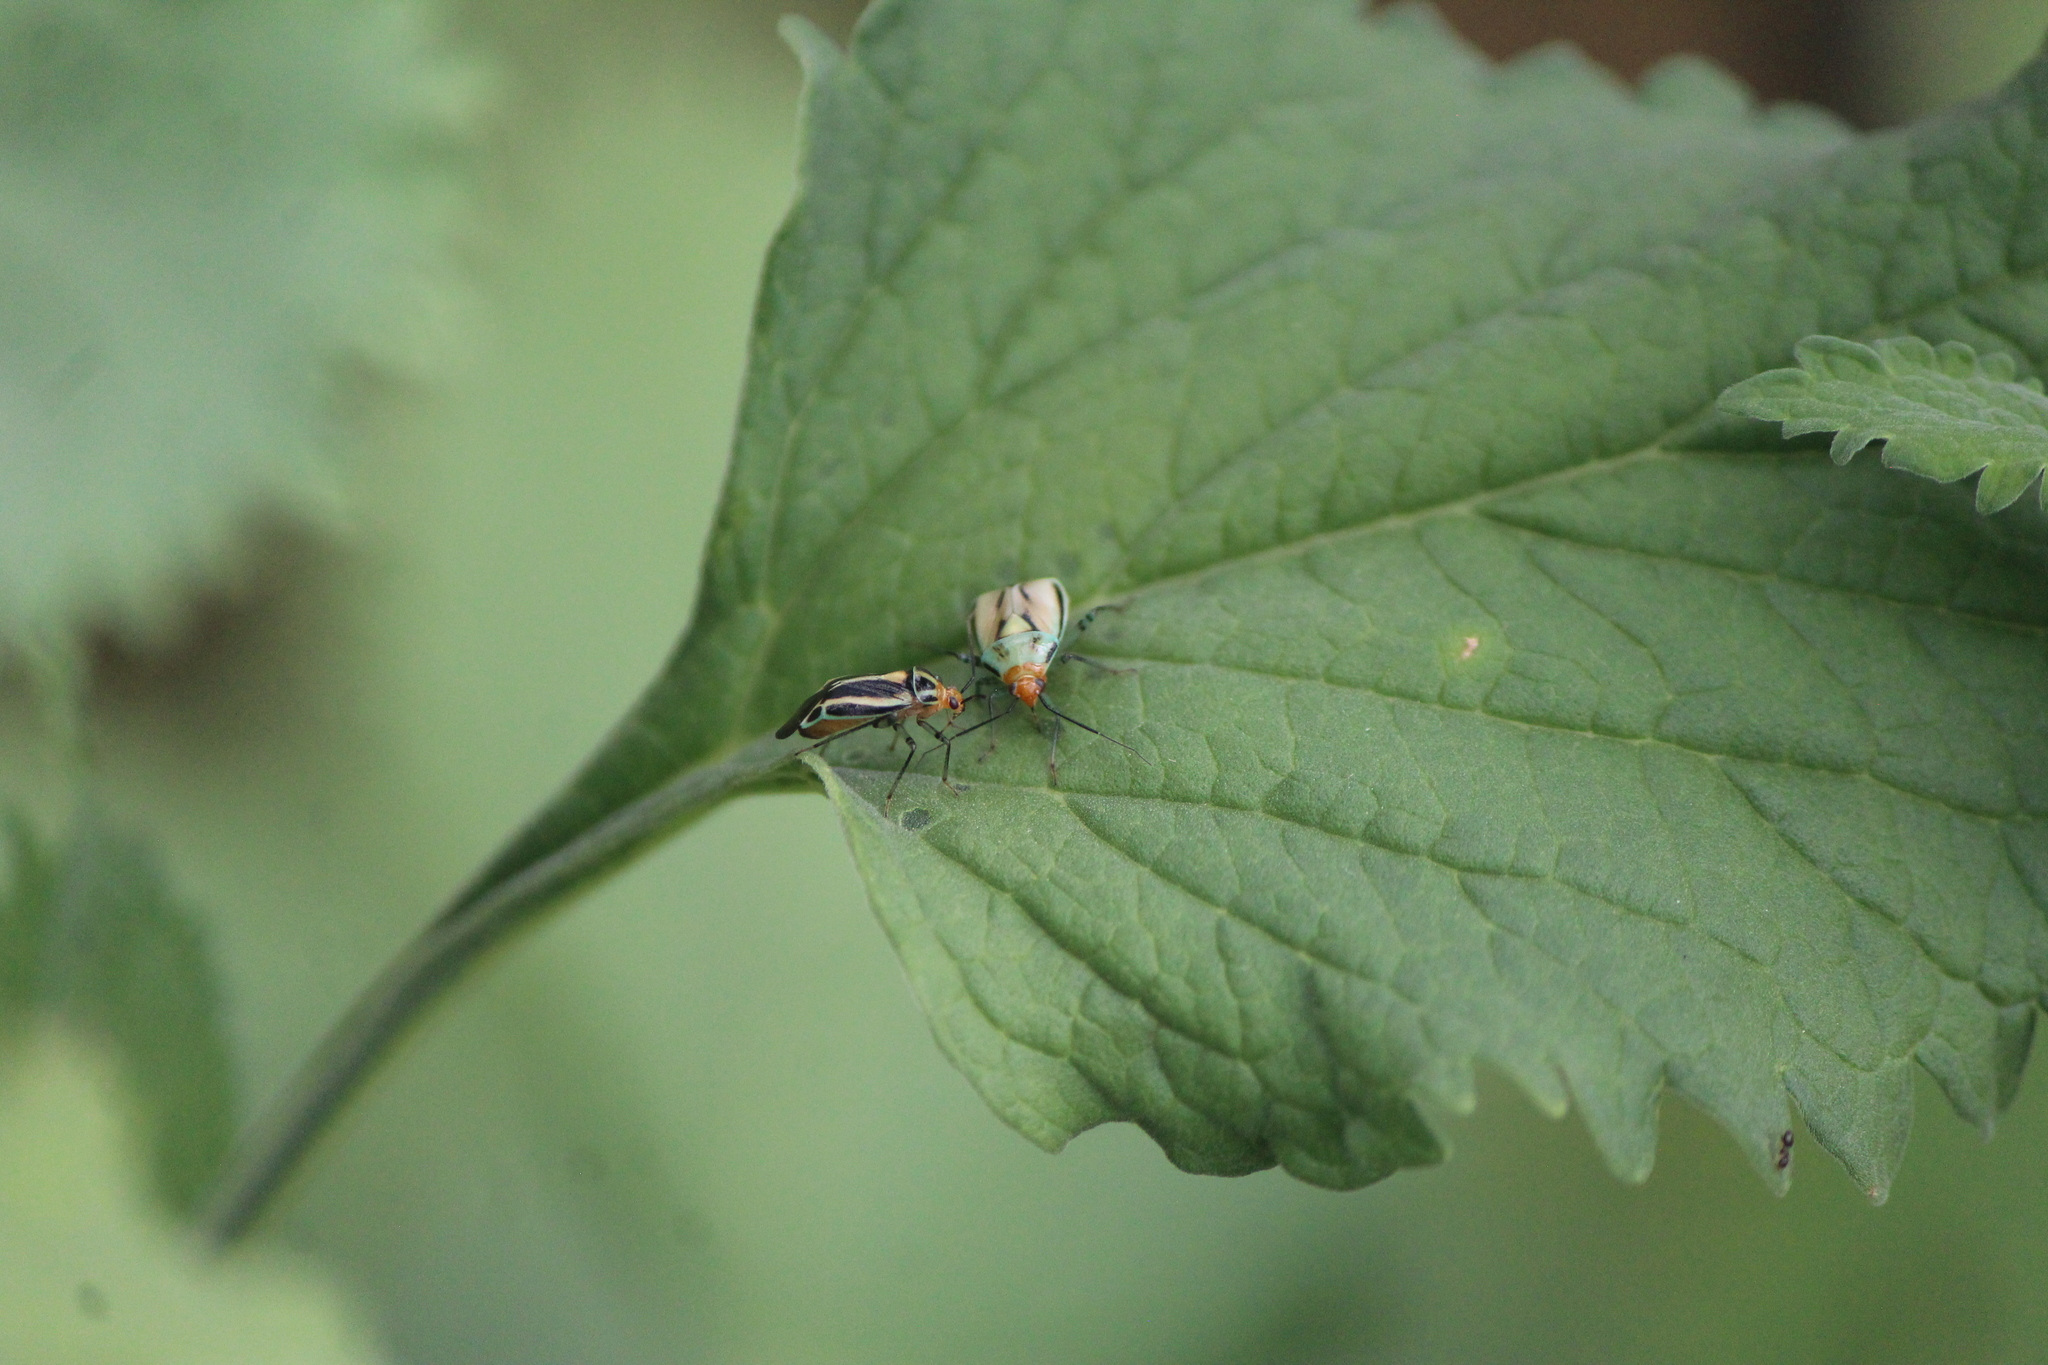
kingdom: Animalia
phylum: Arthropoda
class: Insecta
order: Hemiptera
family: Miridae
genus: Poecilocapsus
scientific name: Poecilocapsus nigriger
